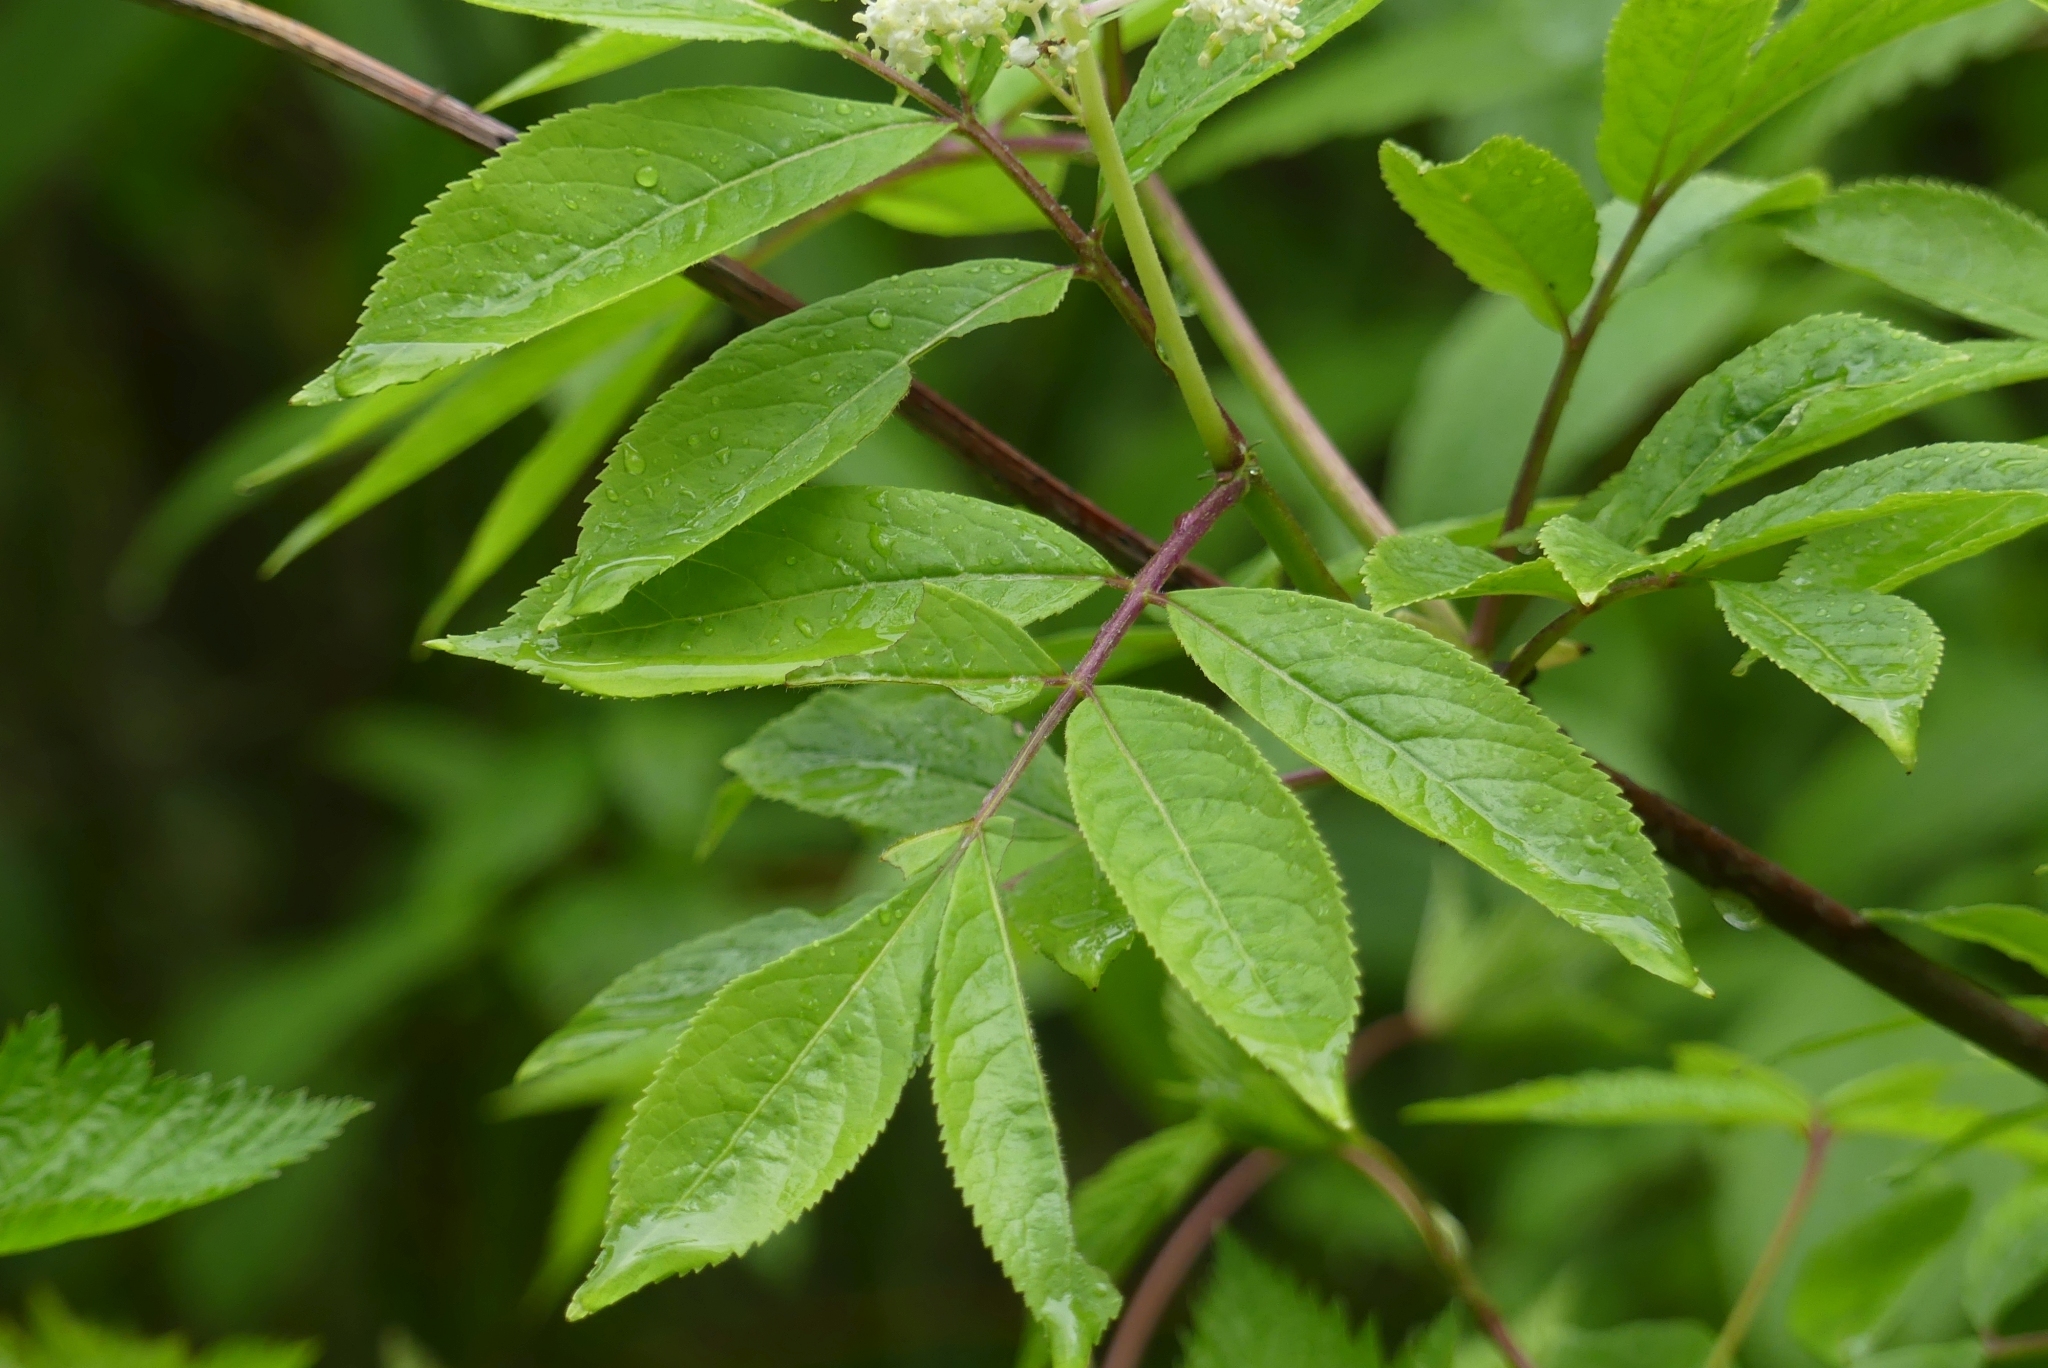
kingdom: Plantae
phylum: Tracheophyta
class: Magnoliopsida
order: Dipsacales
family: Viburnaceae
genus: Sambucus
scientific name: Sambucus racemosa
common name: Red-berried elder
